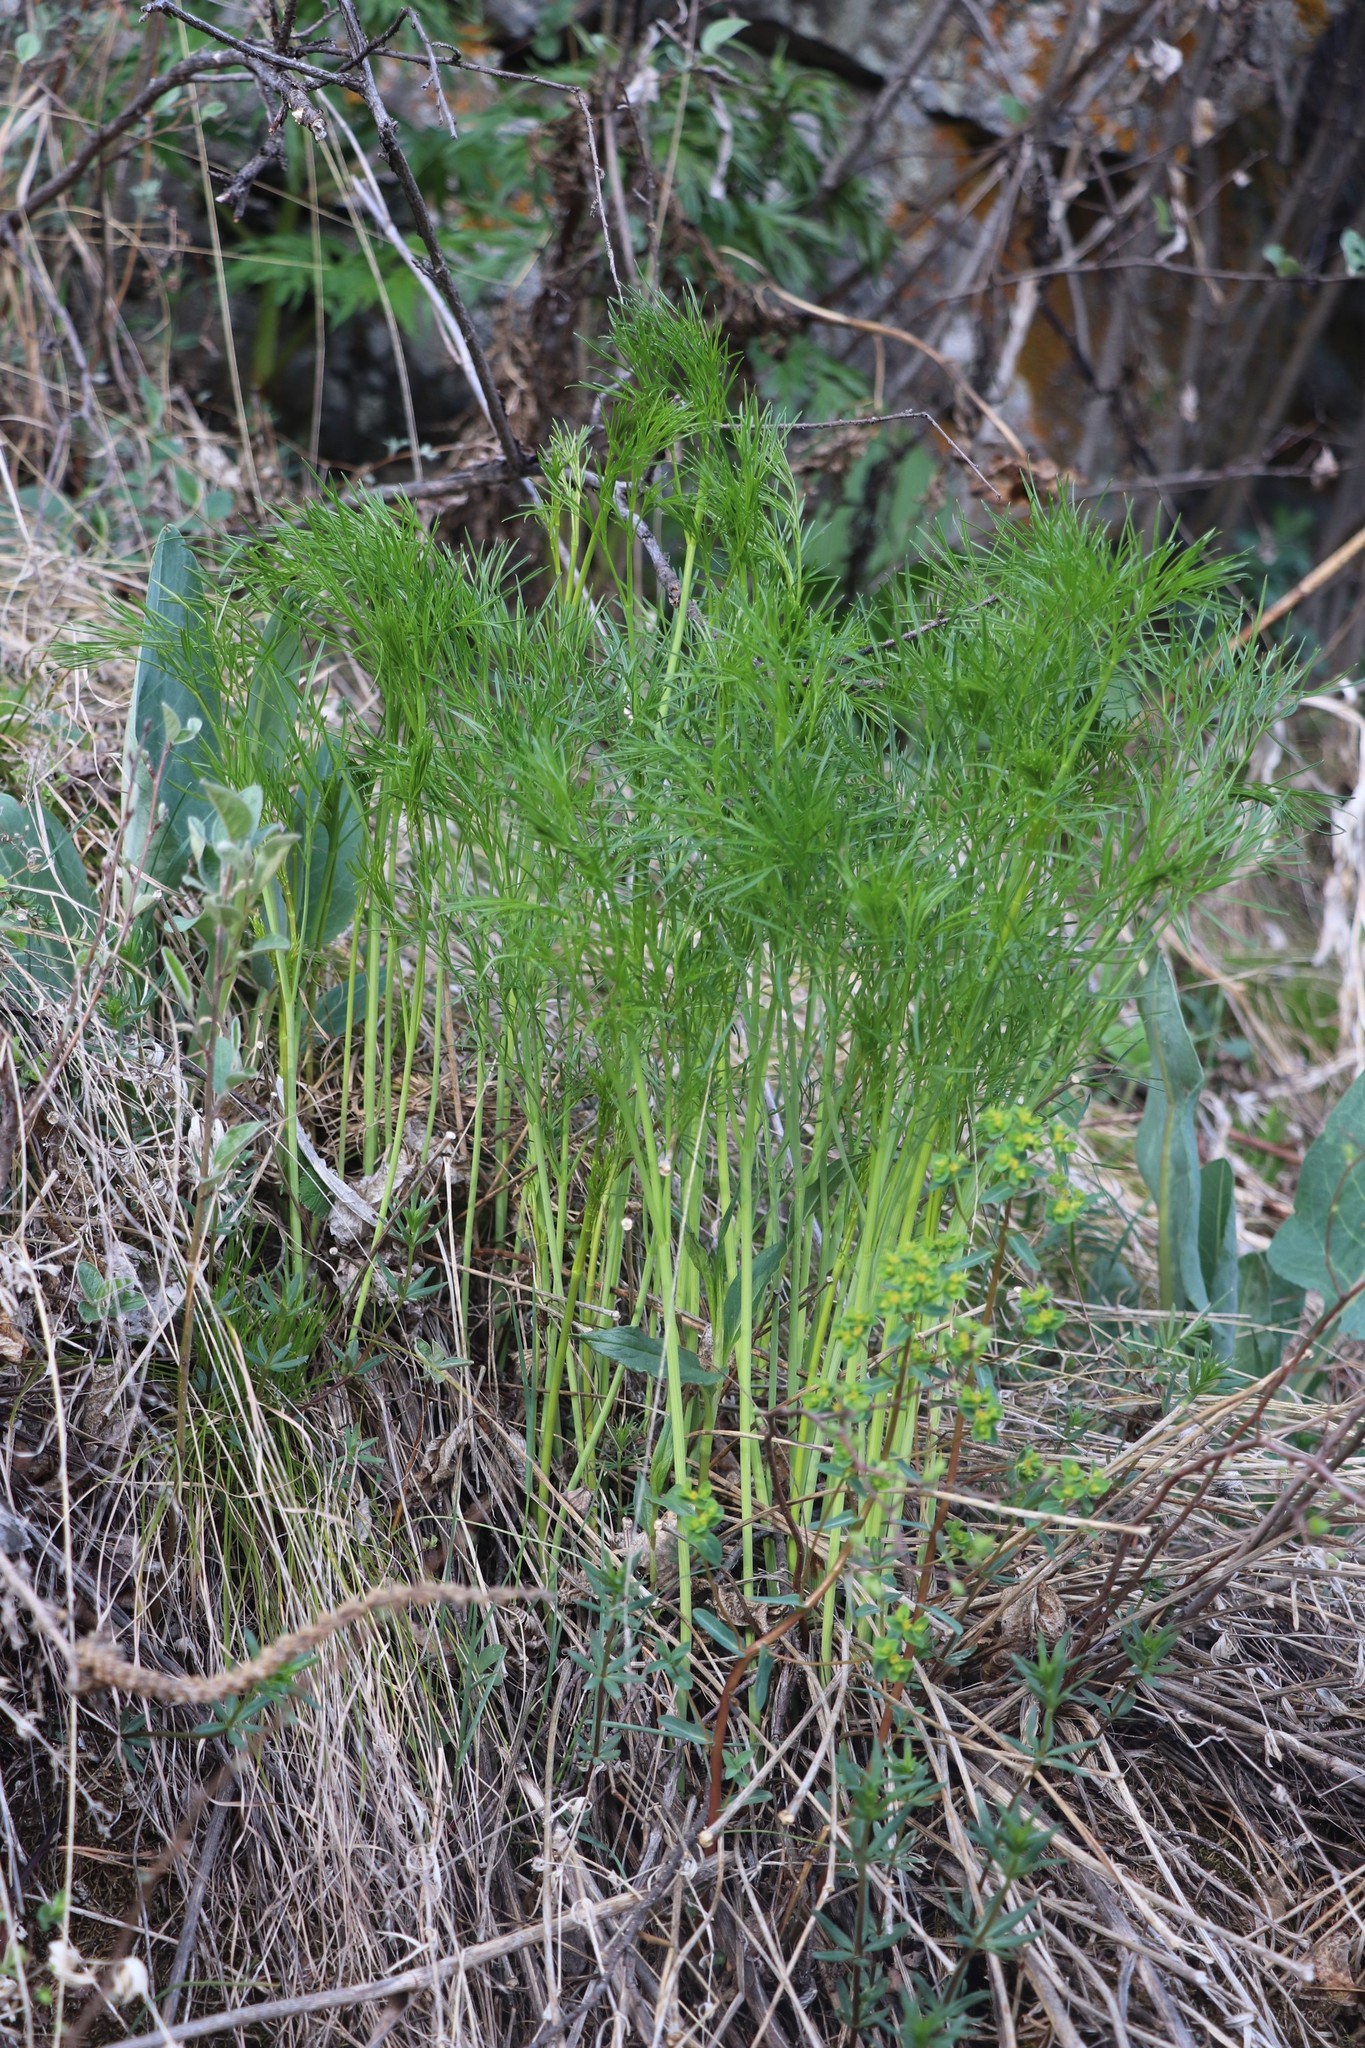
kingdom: Plantae
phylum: Tracheophyta
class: Magnoliopsida
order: Apiales
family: Apiaceae
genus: Peucedanum
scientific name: Peucedanum morisonii
